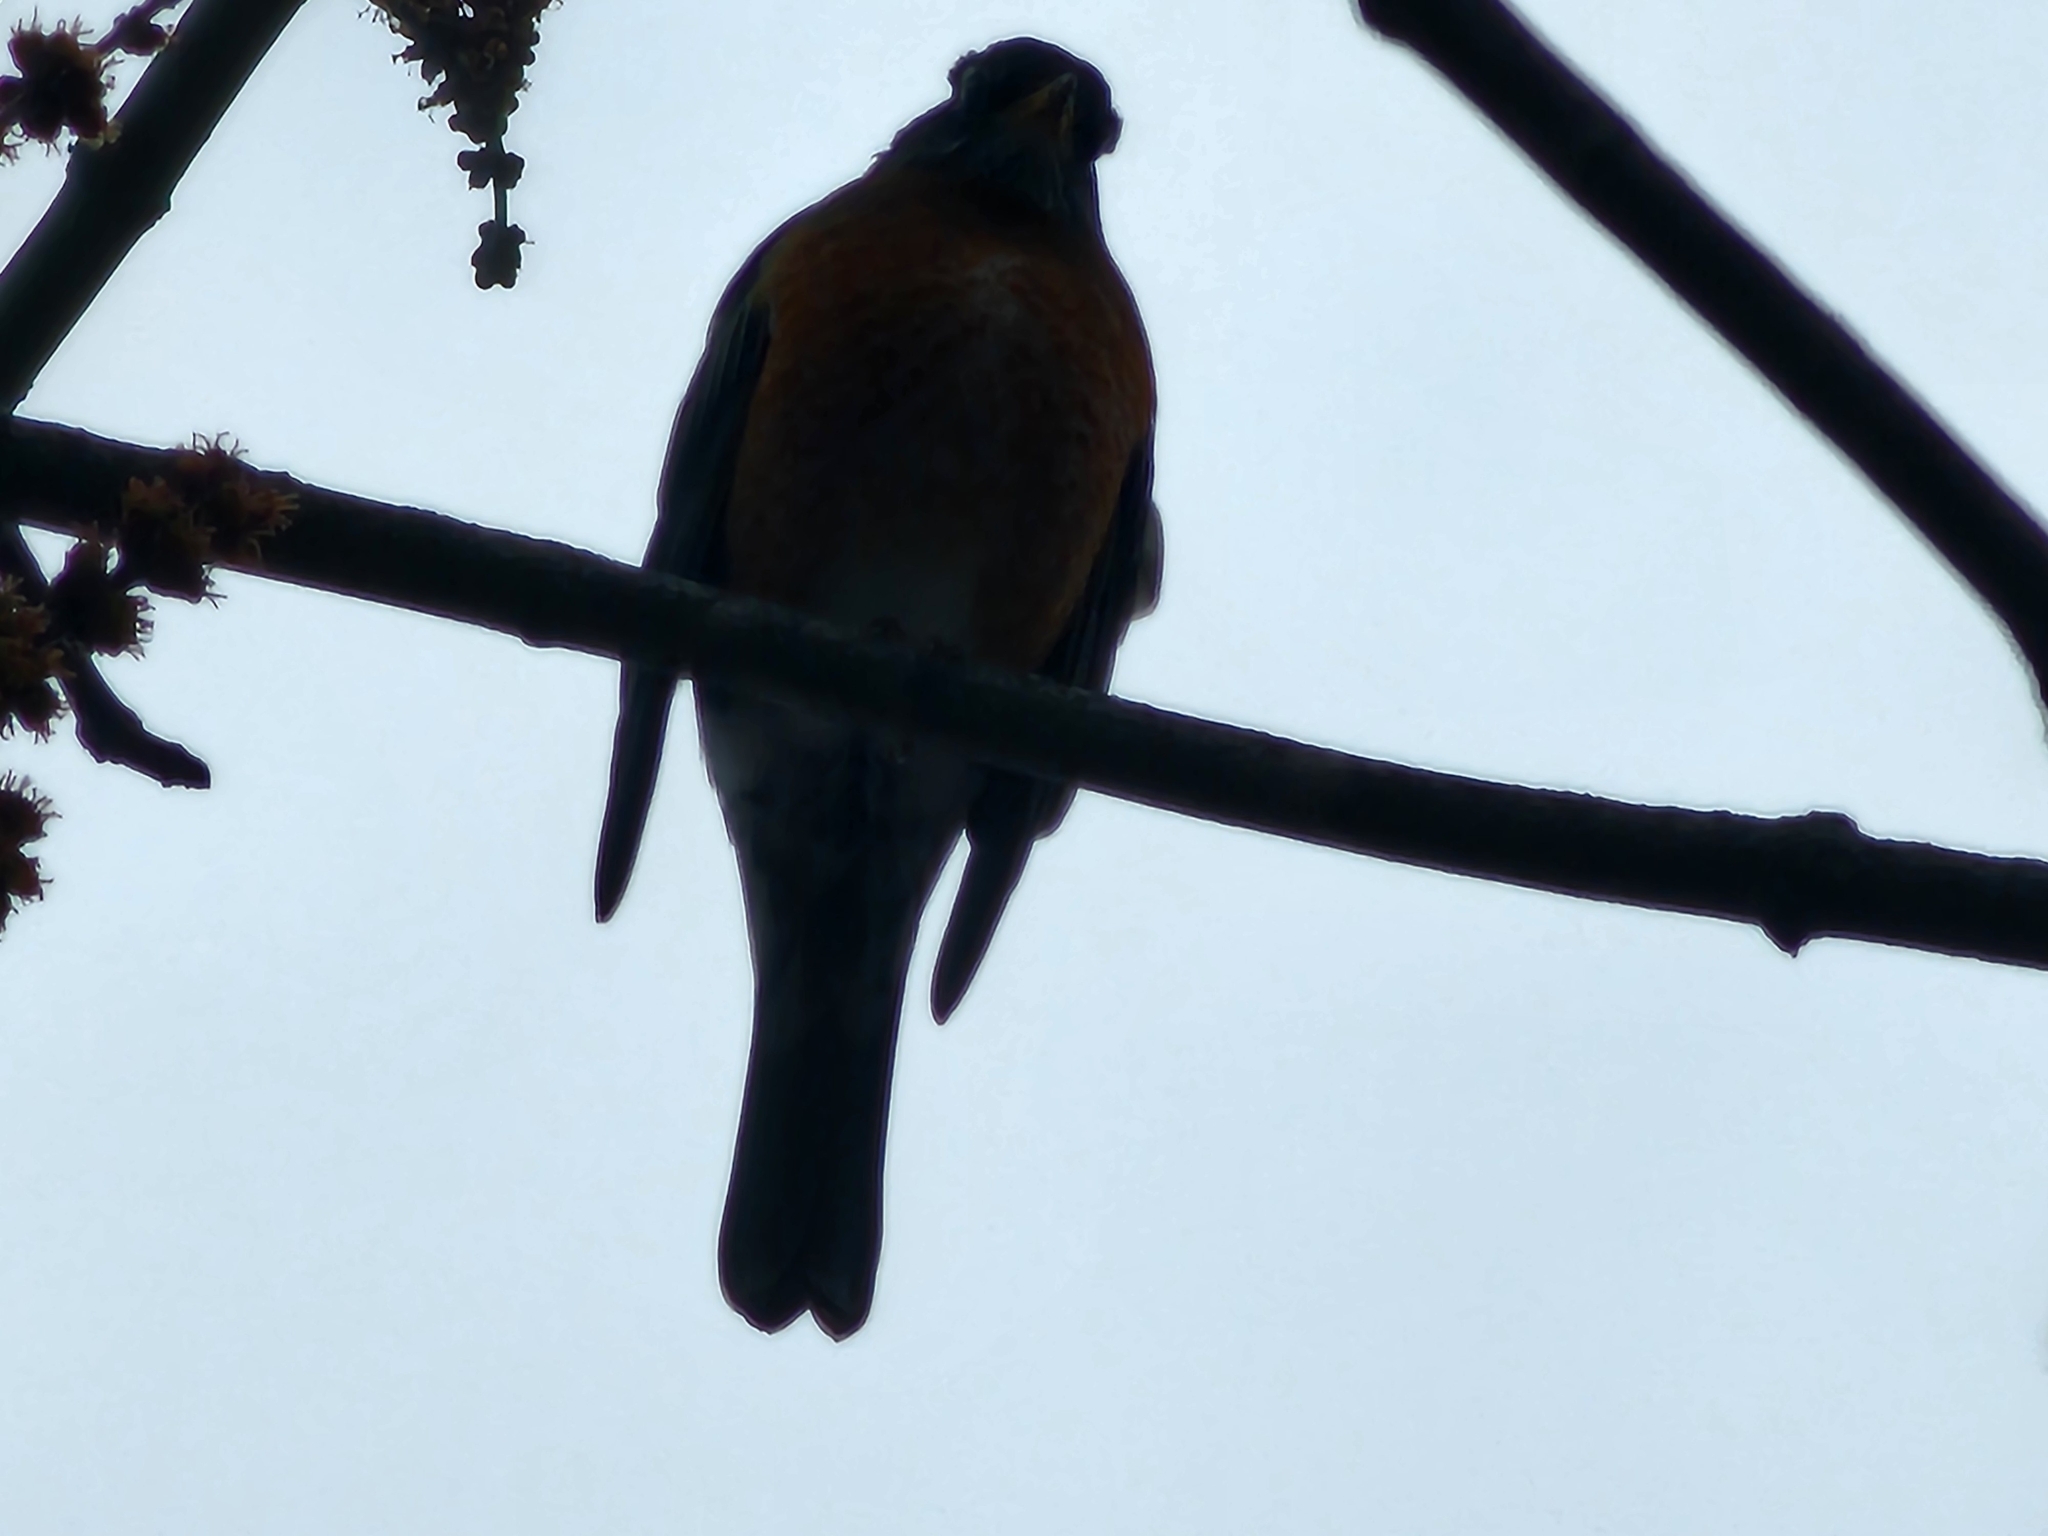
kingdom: Animalia
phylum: Chordata
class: Aves
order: Passeriformes
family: Turdidae
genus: Turdus
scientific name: Turdus migratorius
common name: American robin
